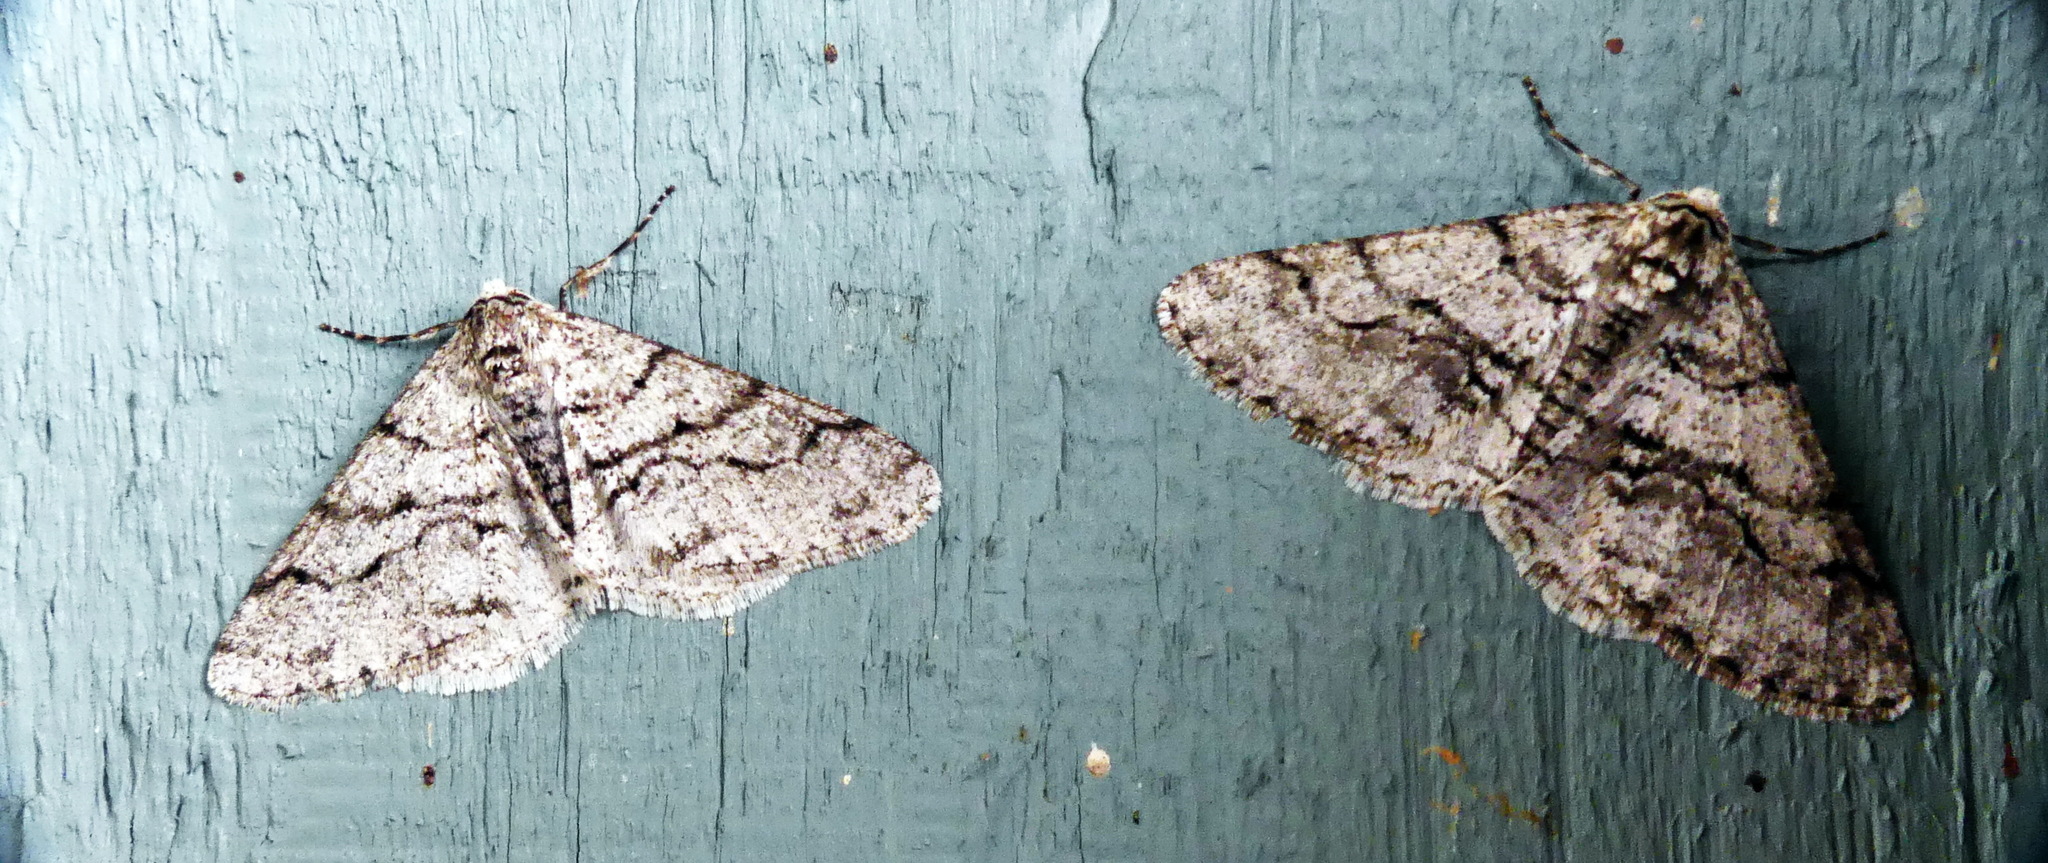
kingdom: Animalia
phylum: Arthropoda
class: Insecta
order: Lepidoptera
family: Geometridae
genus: Phigalia
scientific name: Phigalia titea
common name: Spiny looper
